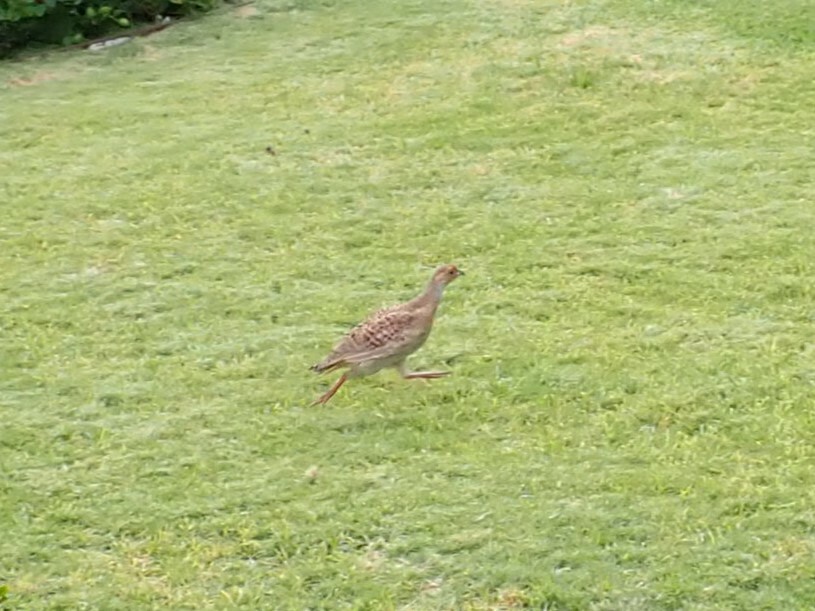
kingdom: Animalia
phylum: Chordata
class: Aves
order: Galliformes
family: Phasianidae
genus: Ortygornis
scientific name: Ortygornis pondicerianus
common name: Grey francolin
